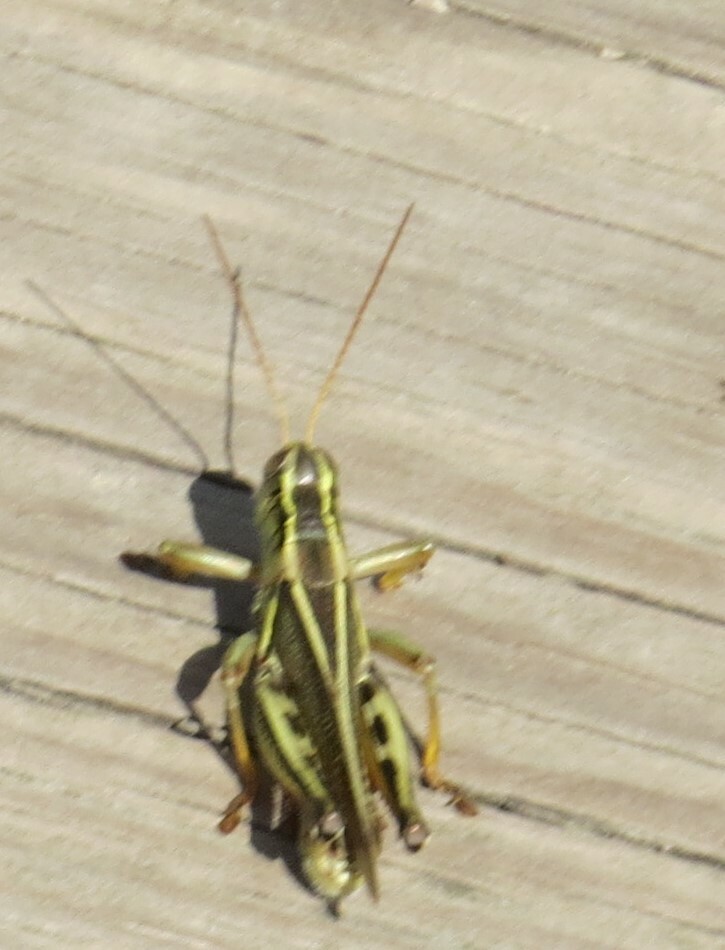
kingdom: Animalia
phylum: Arthropoda
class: Insecta
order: Orthoptera
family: Acrididae
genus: Melanoplus
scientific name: Melanoplus bivittatus
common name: Two-striped grasshopper
